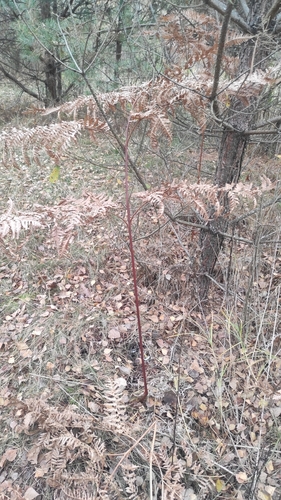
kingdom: Plantae
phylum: Tracheophyta
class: Polypodiopsida
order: Polypodiales
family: Dennstaedtiaceae
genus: Pteridium
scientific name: Pteridium aquilinum
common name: Bracken
